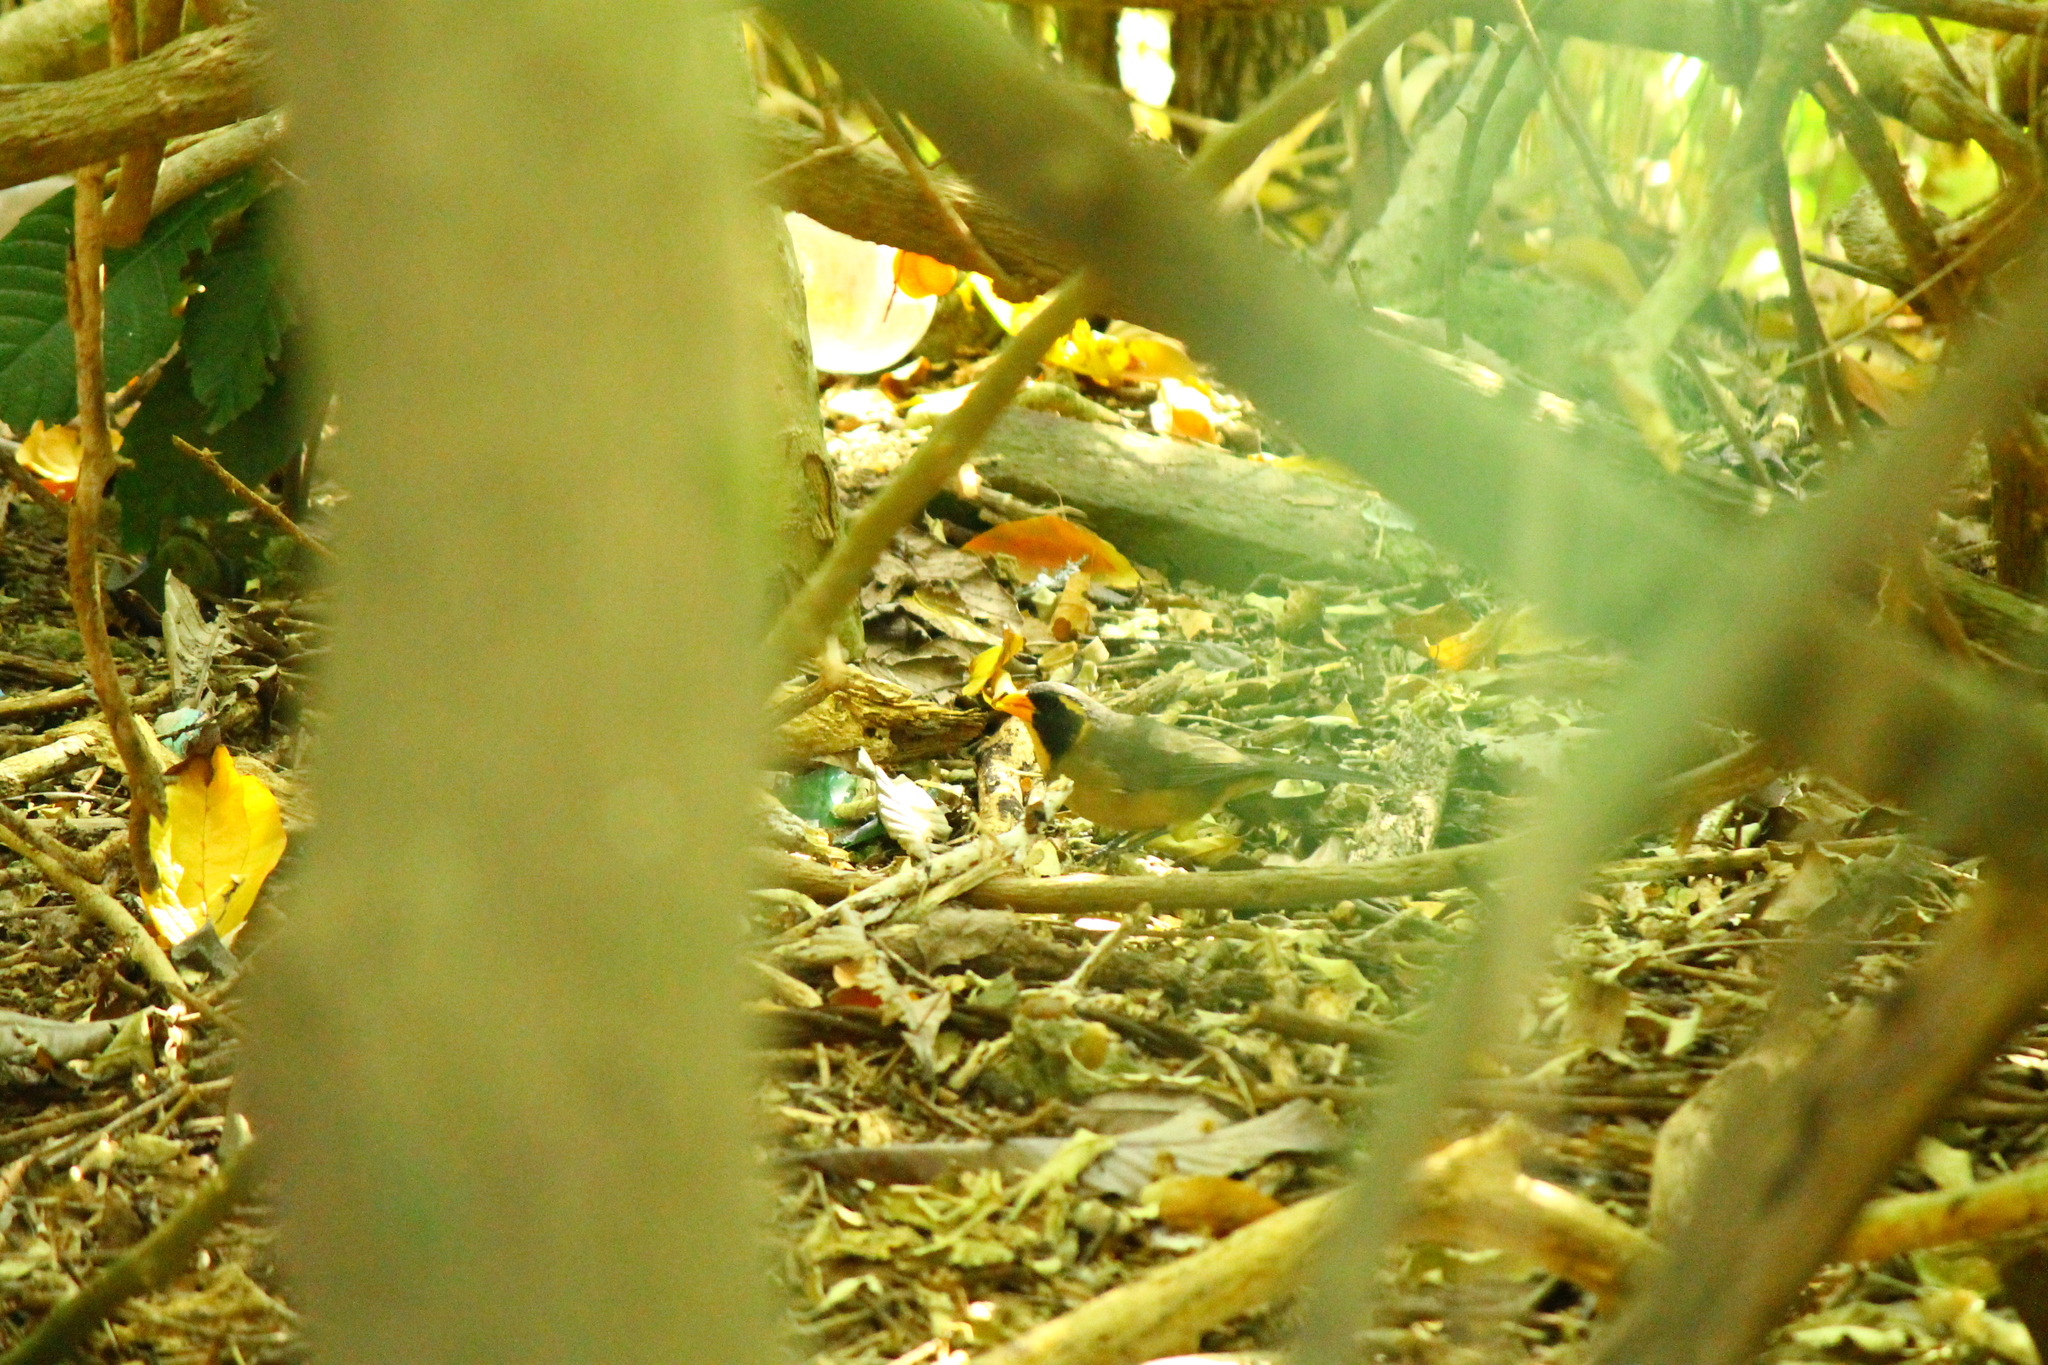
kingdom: Animalia
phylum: Chordata
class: Aves
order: Passeriformes
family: Thraupidae
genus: Saltator
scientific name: Saltator aurantiirostris
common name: Golden-billed saltator
